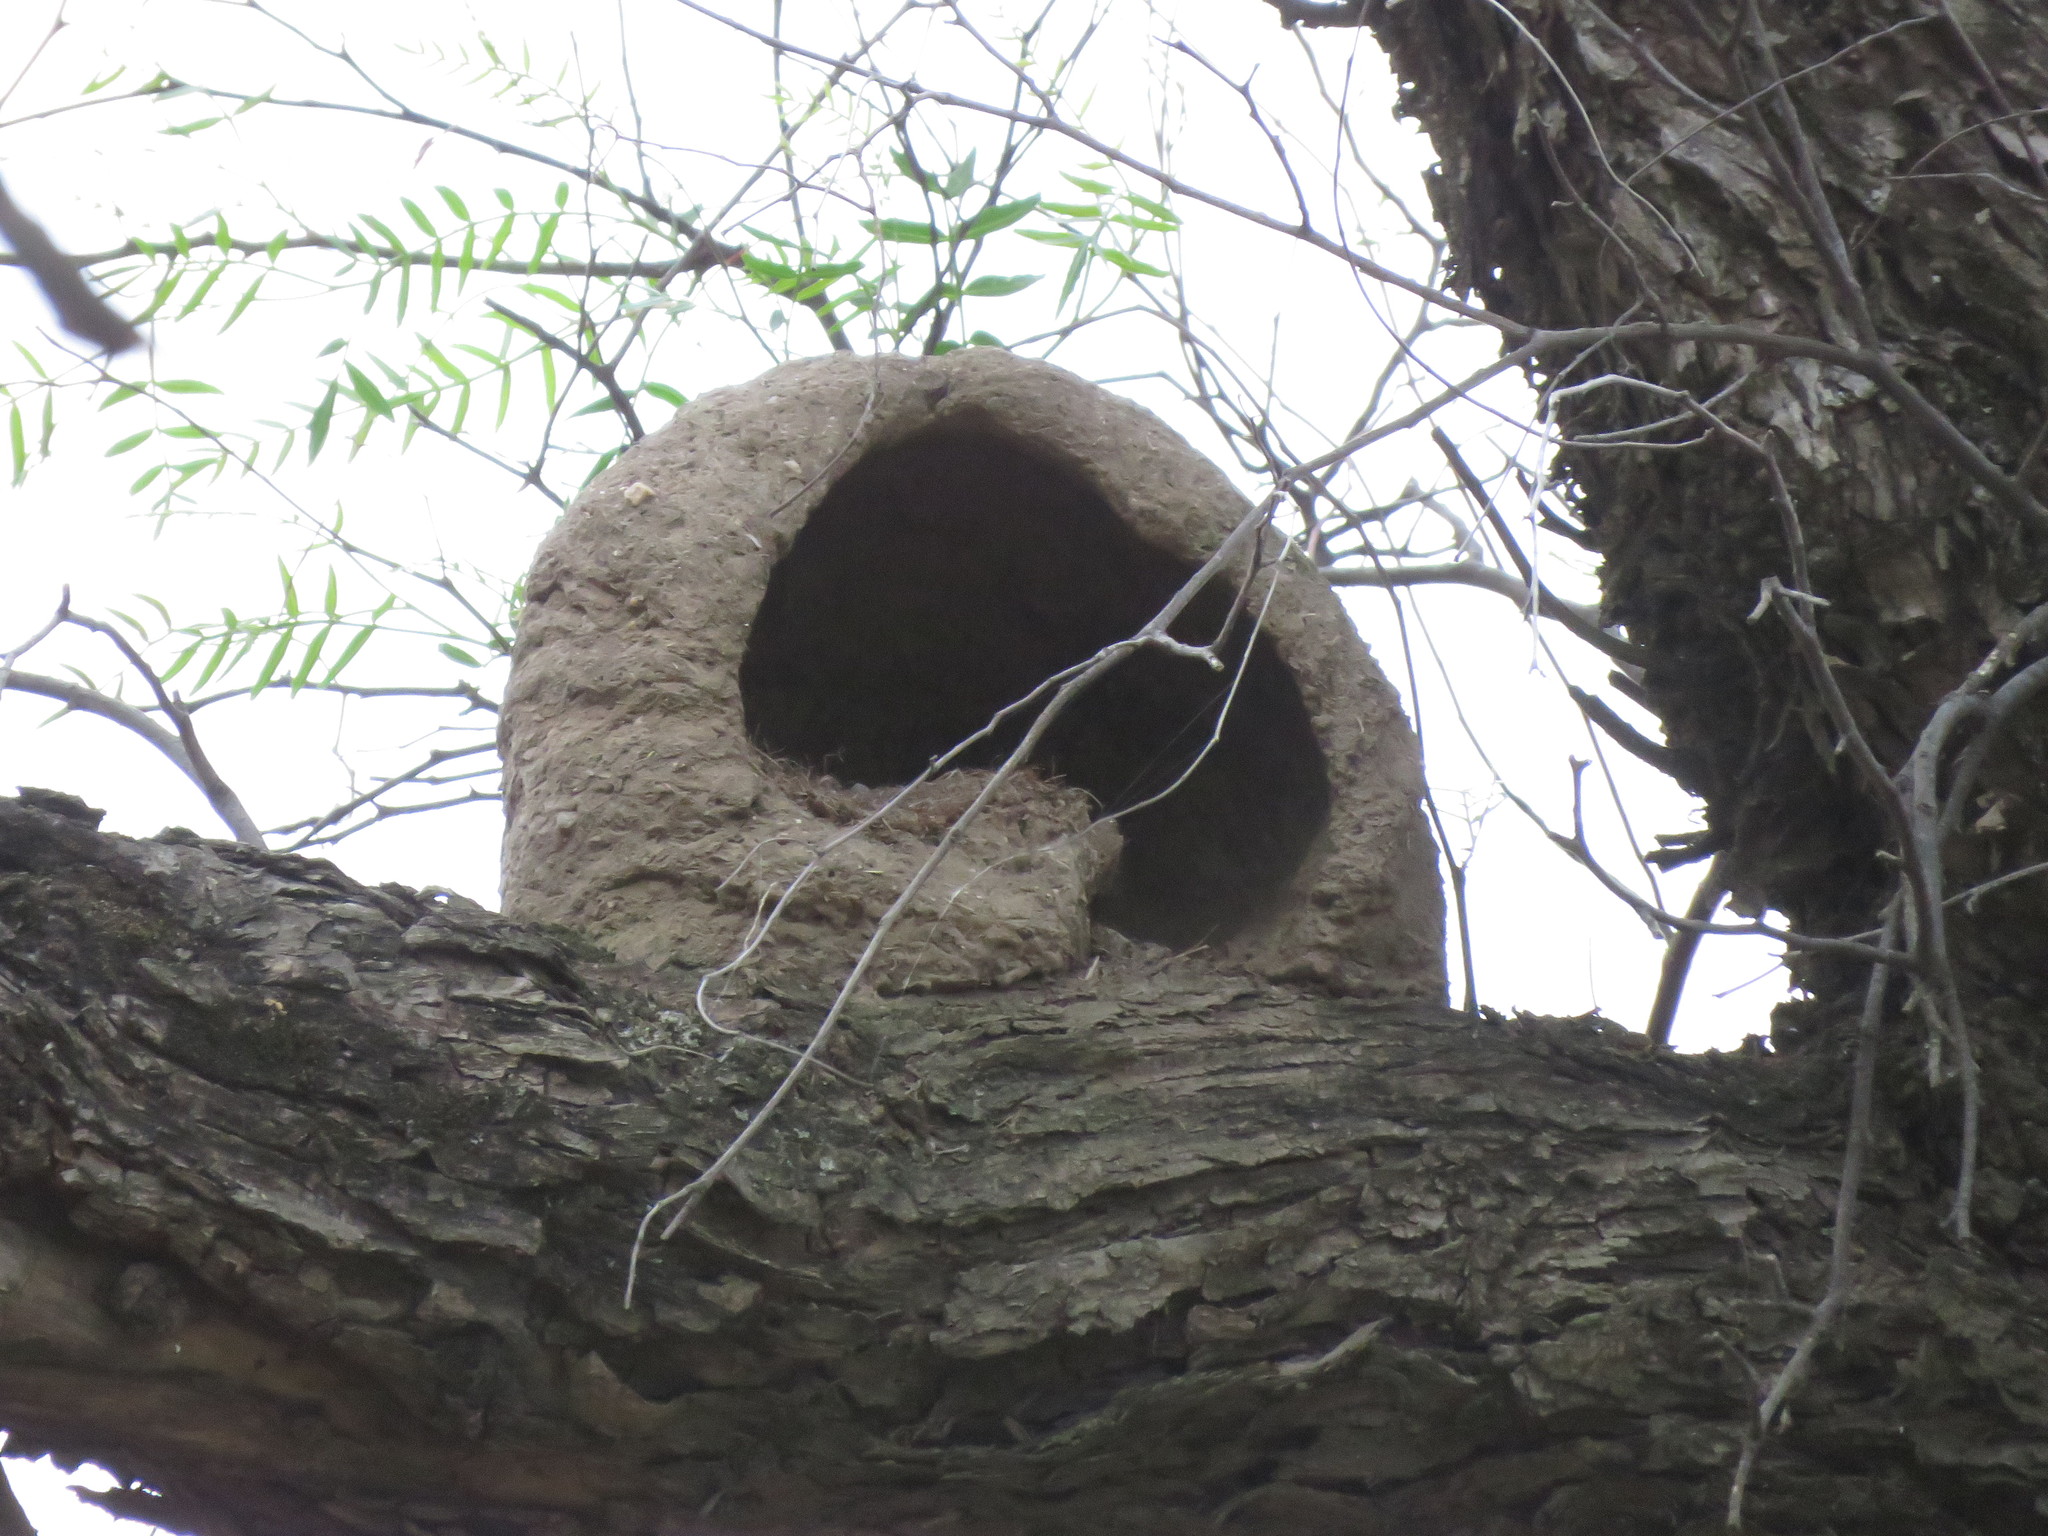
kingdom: Animalia
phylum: Chordata
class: Aves
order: Passeriformes
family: Furnariidae
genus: Furnarius
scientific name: Furnarius rufus
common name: Rufous hornero
